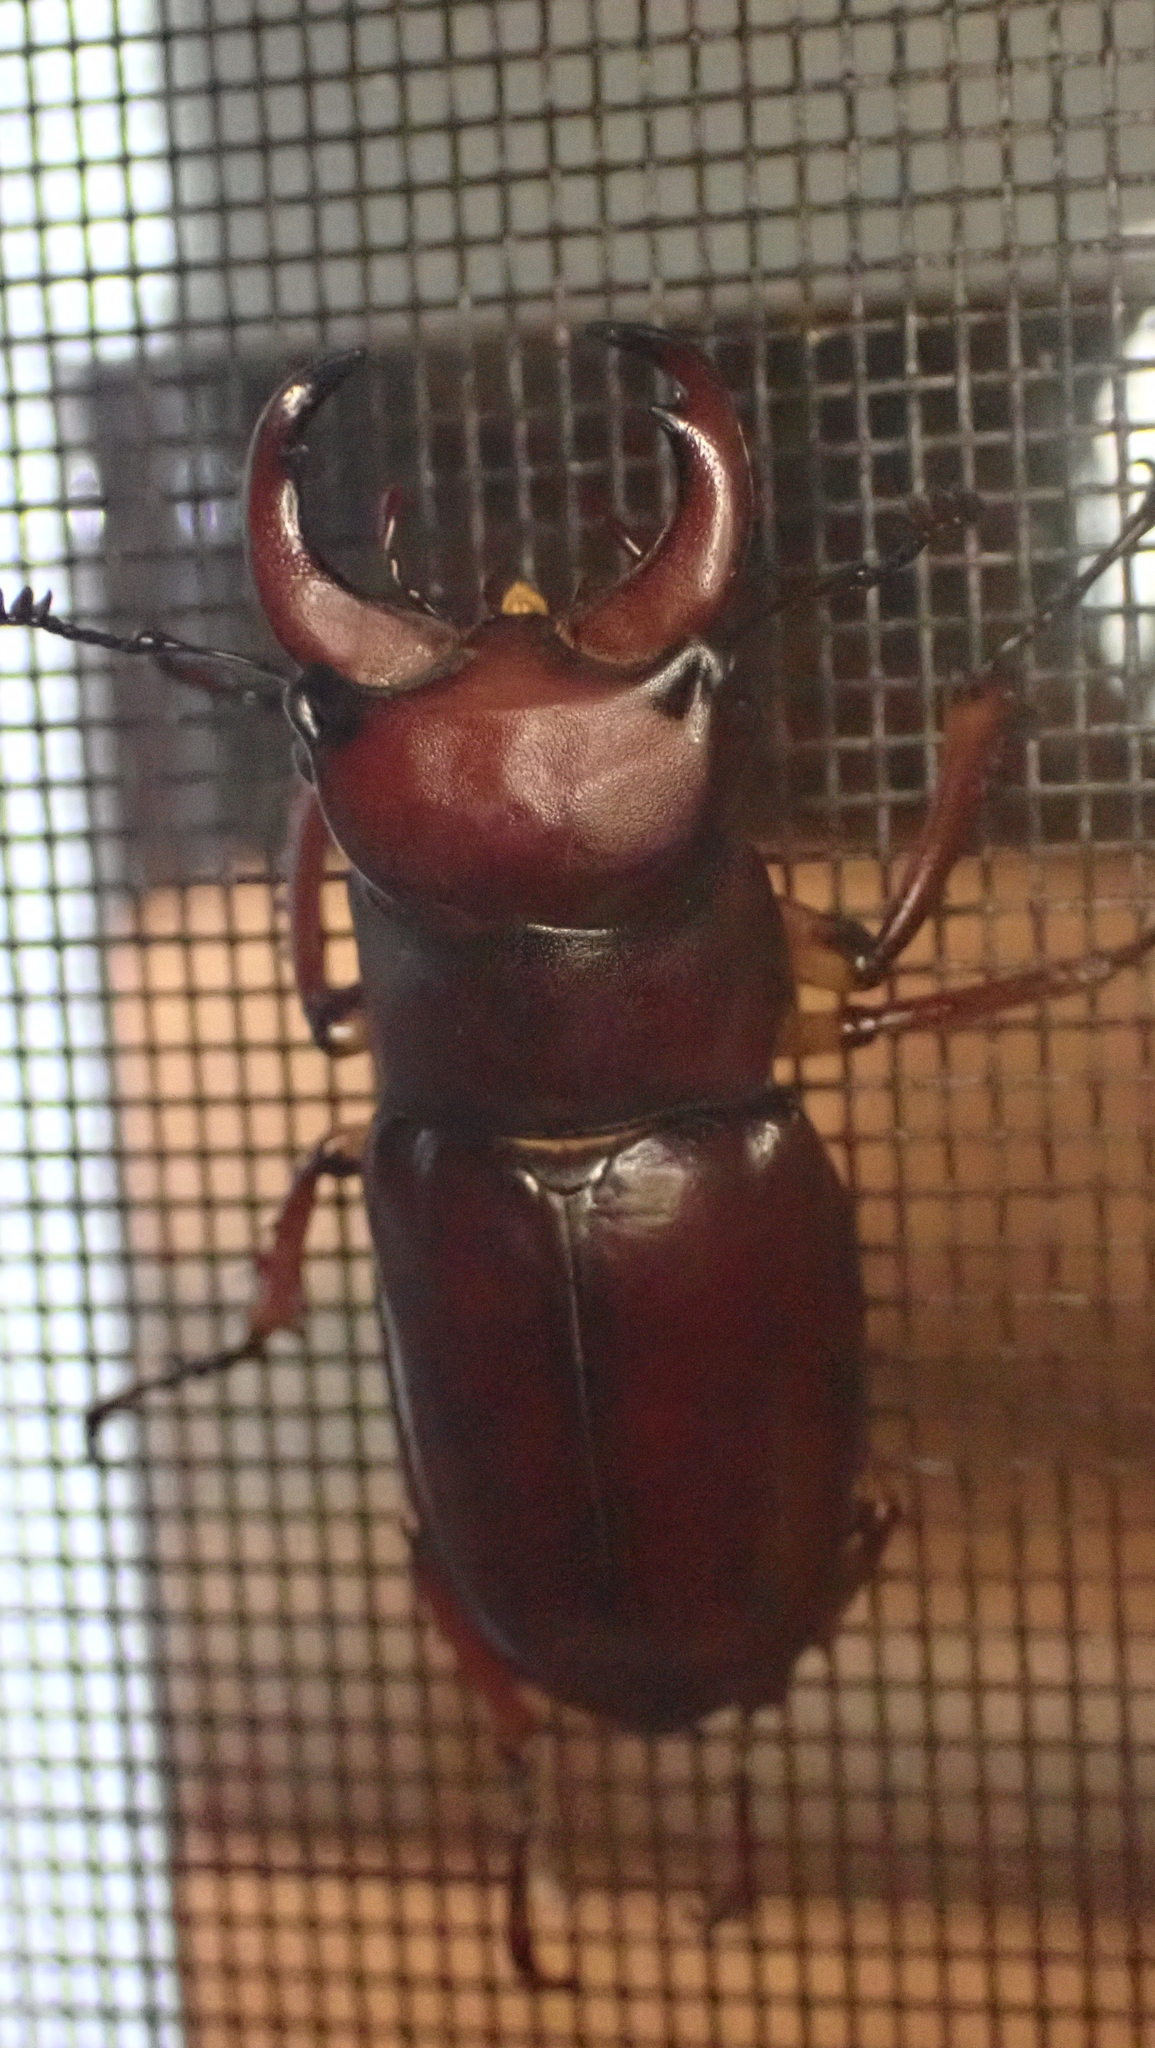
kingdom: Animalia
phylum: Arthropoda
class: Insecta
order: Coleoptera
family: Lucanidae
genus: Lucanus
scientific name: Lucanus capreolus
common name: Stag beetle
